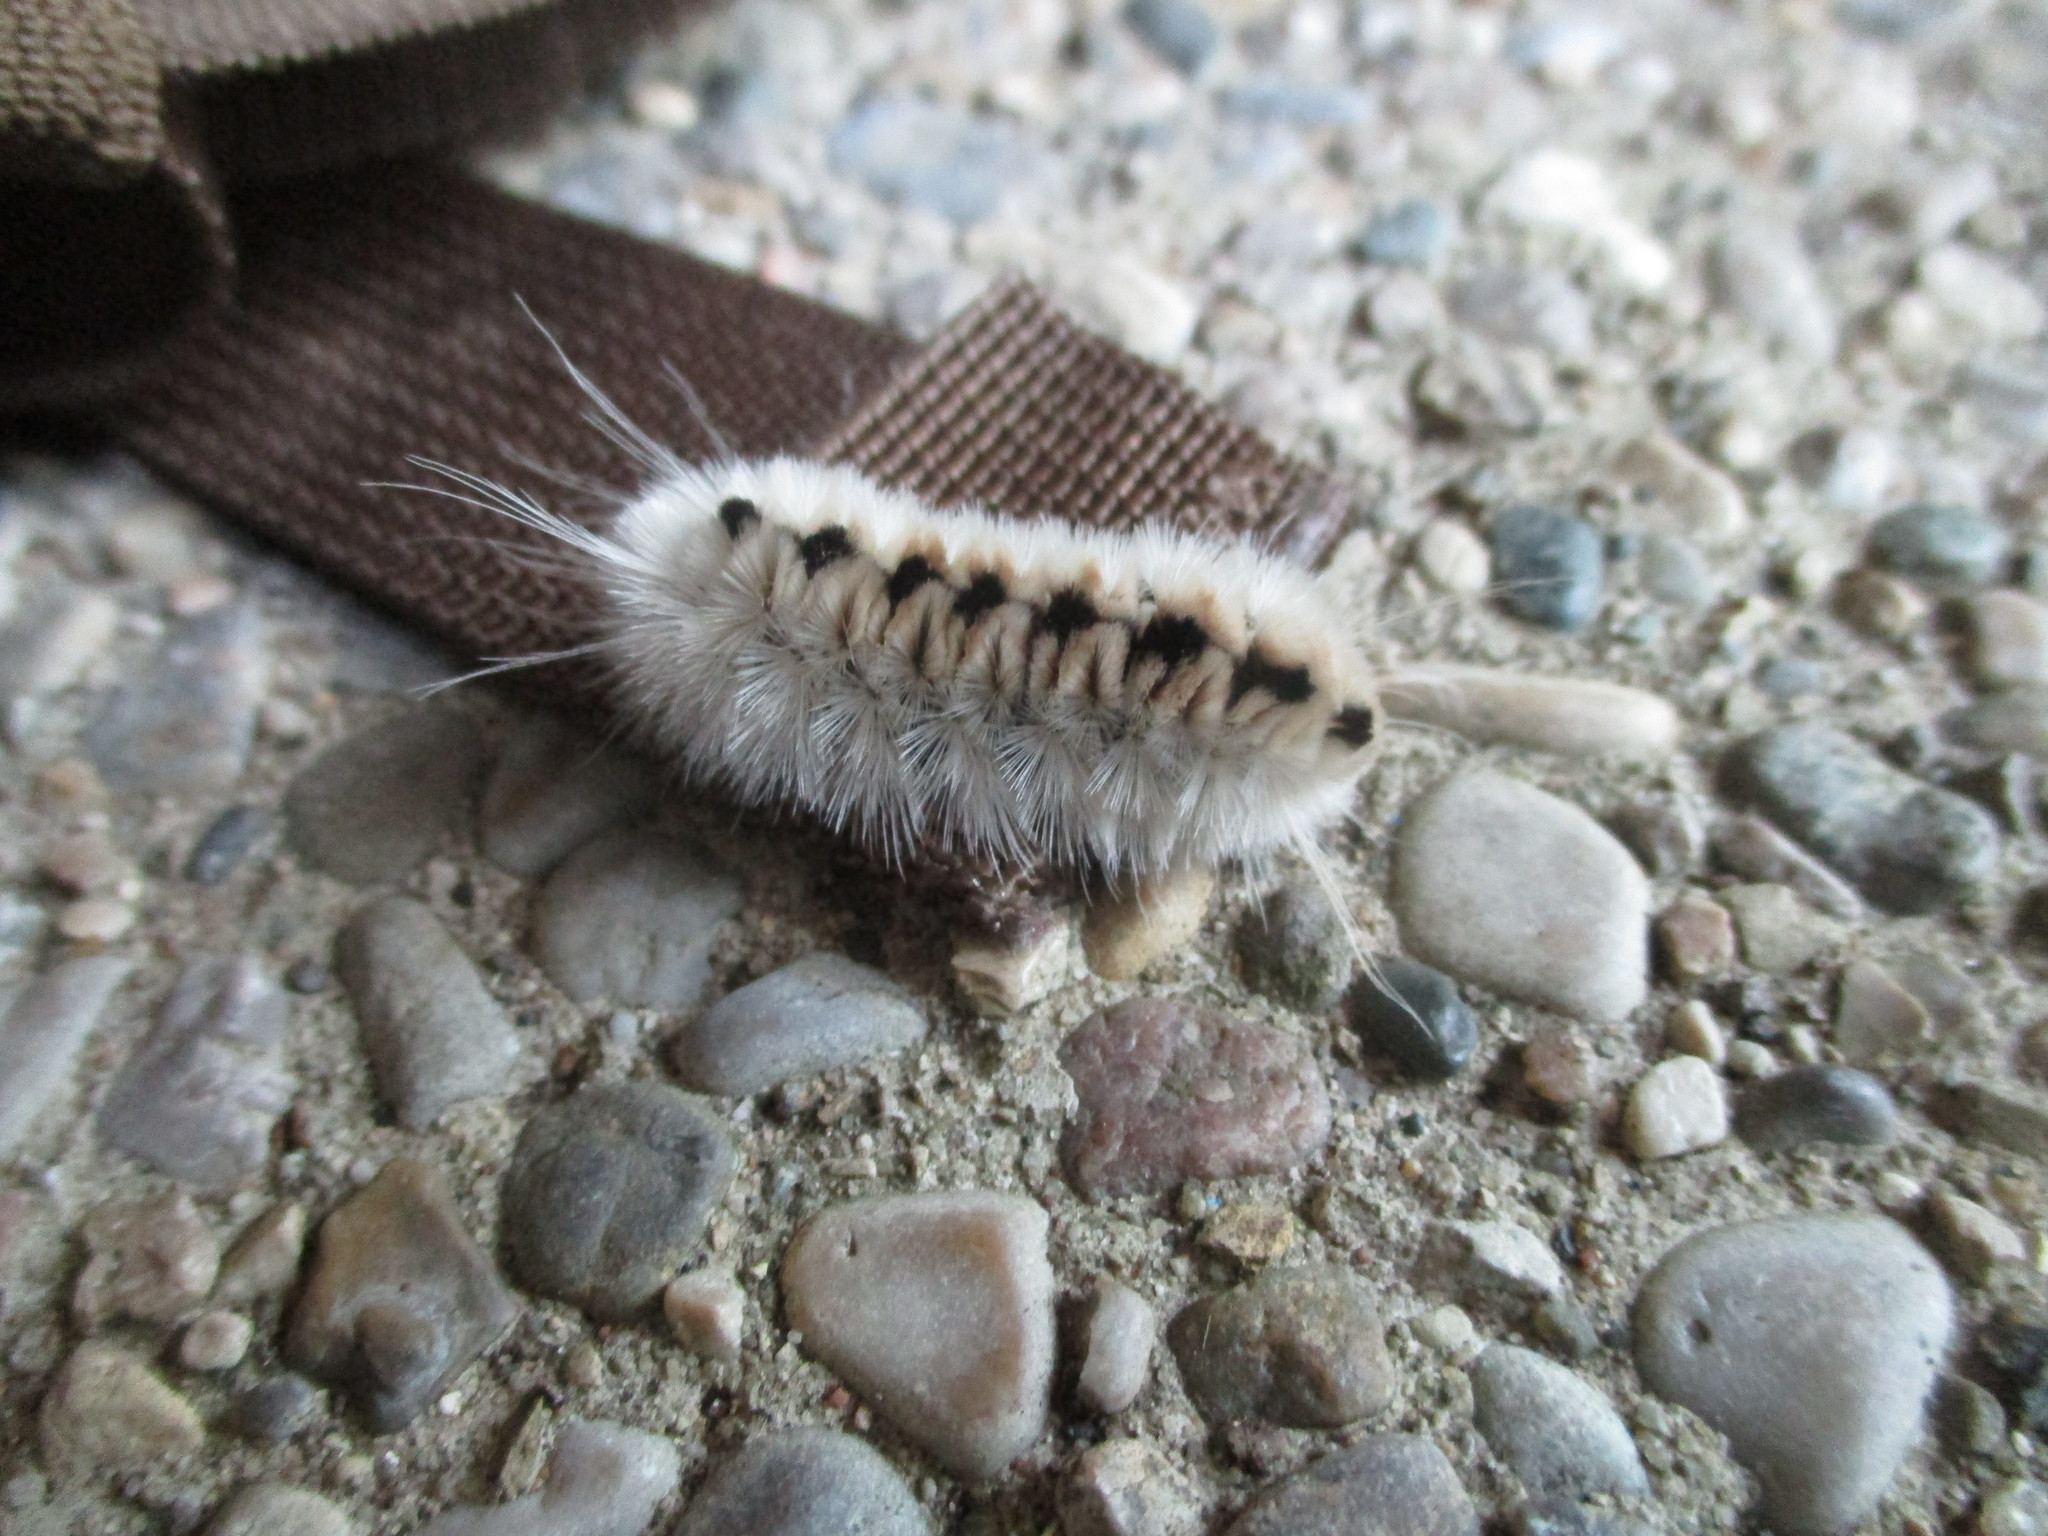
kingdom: Animalia
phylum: Arthropoda
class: Insecta
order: Lepidoptera
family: Erebidae
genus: Lophocampa
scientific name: Lophocampa caryae
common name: Hickory tussock moth
